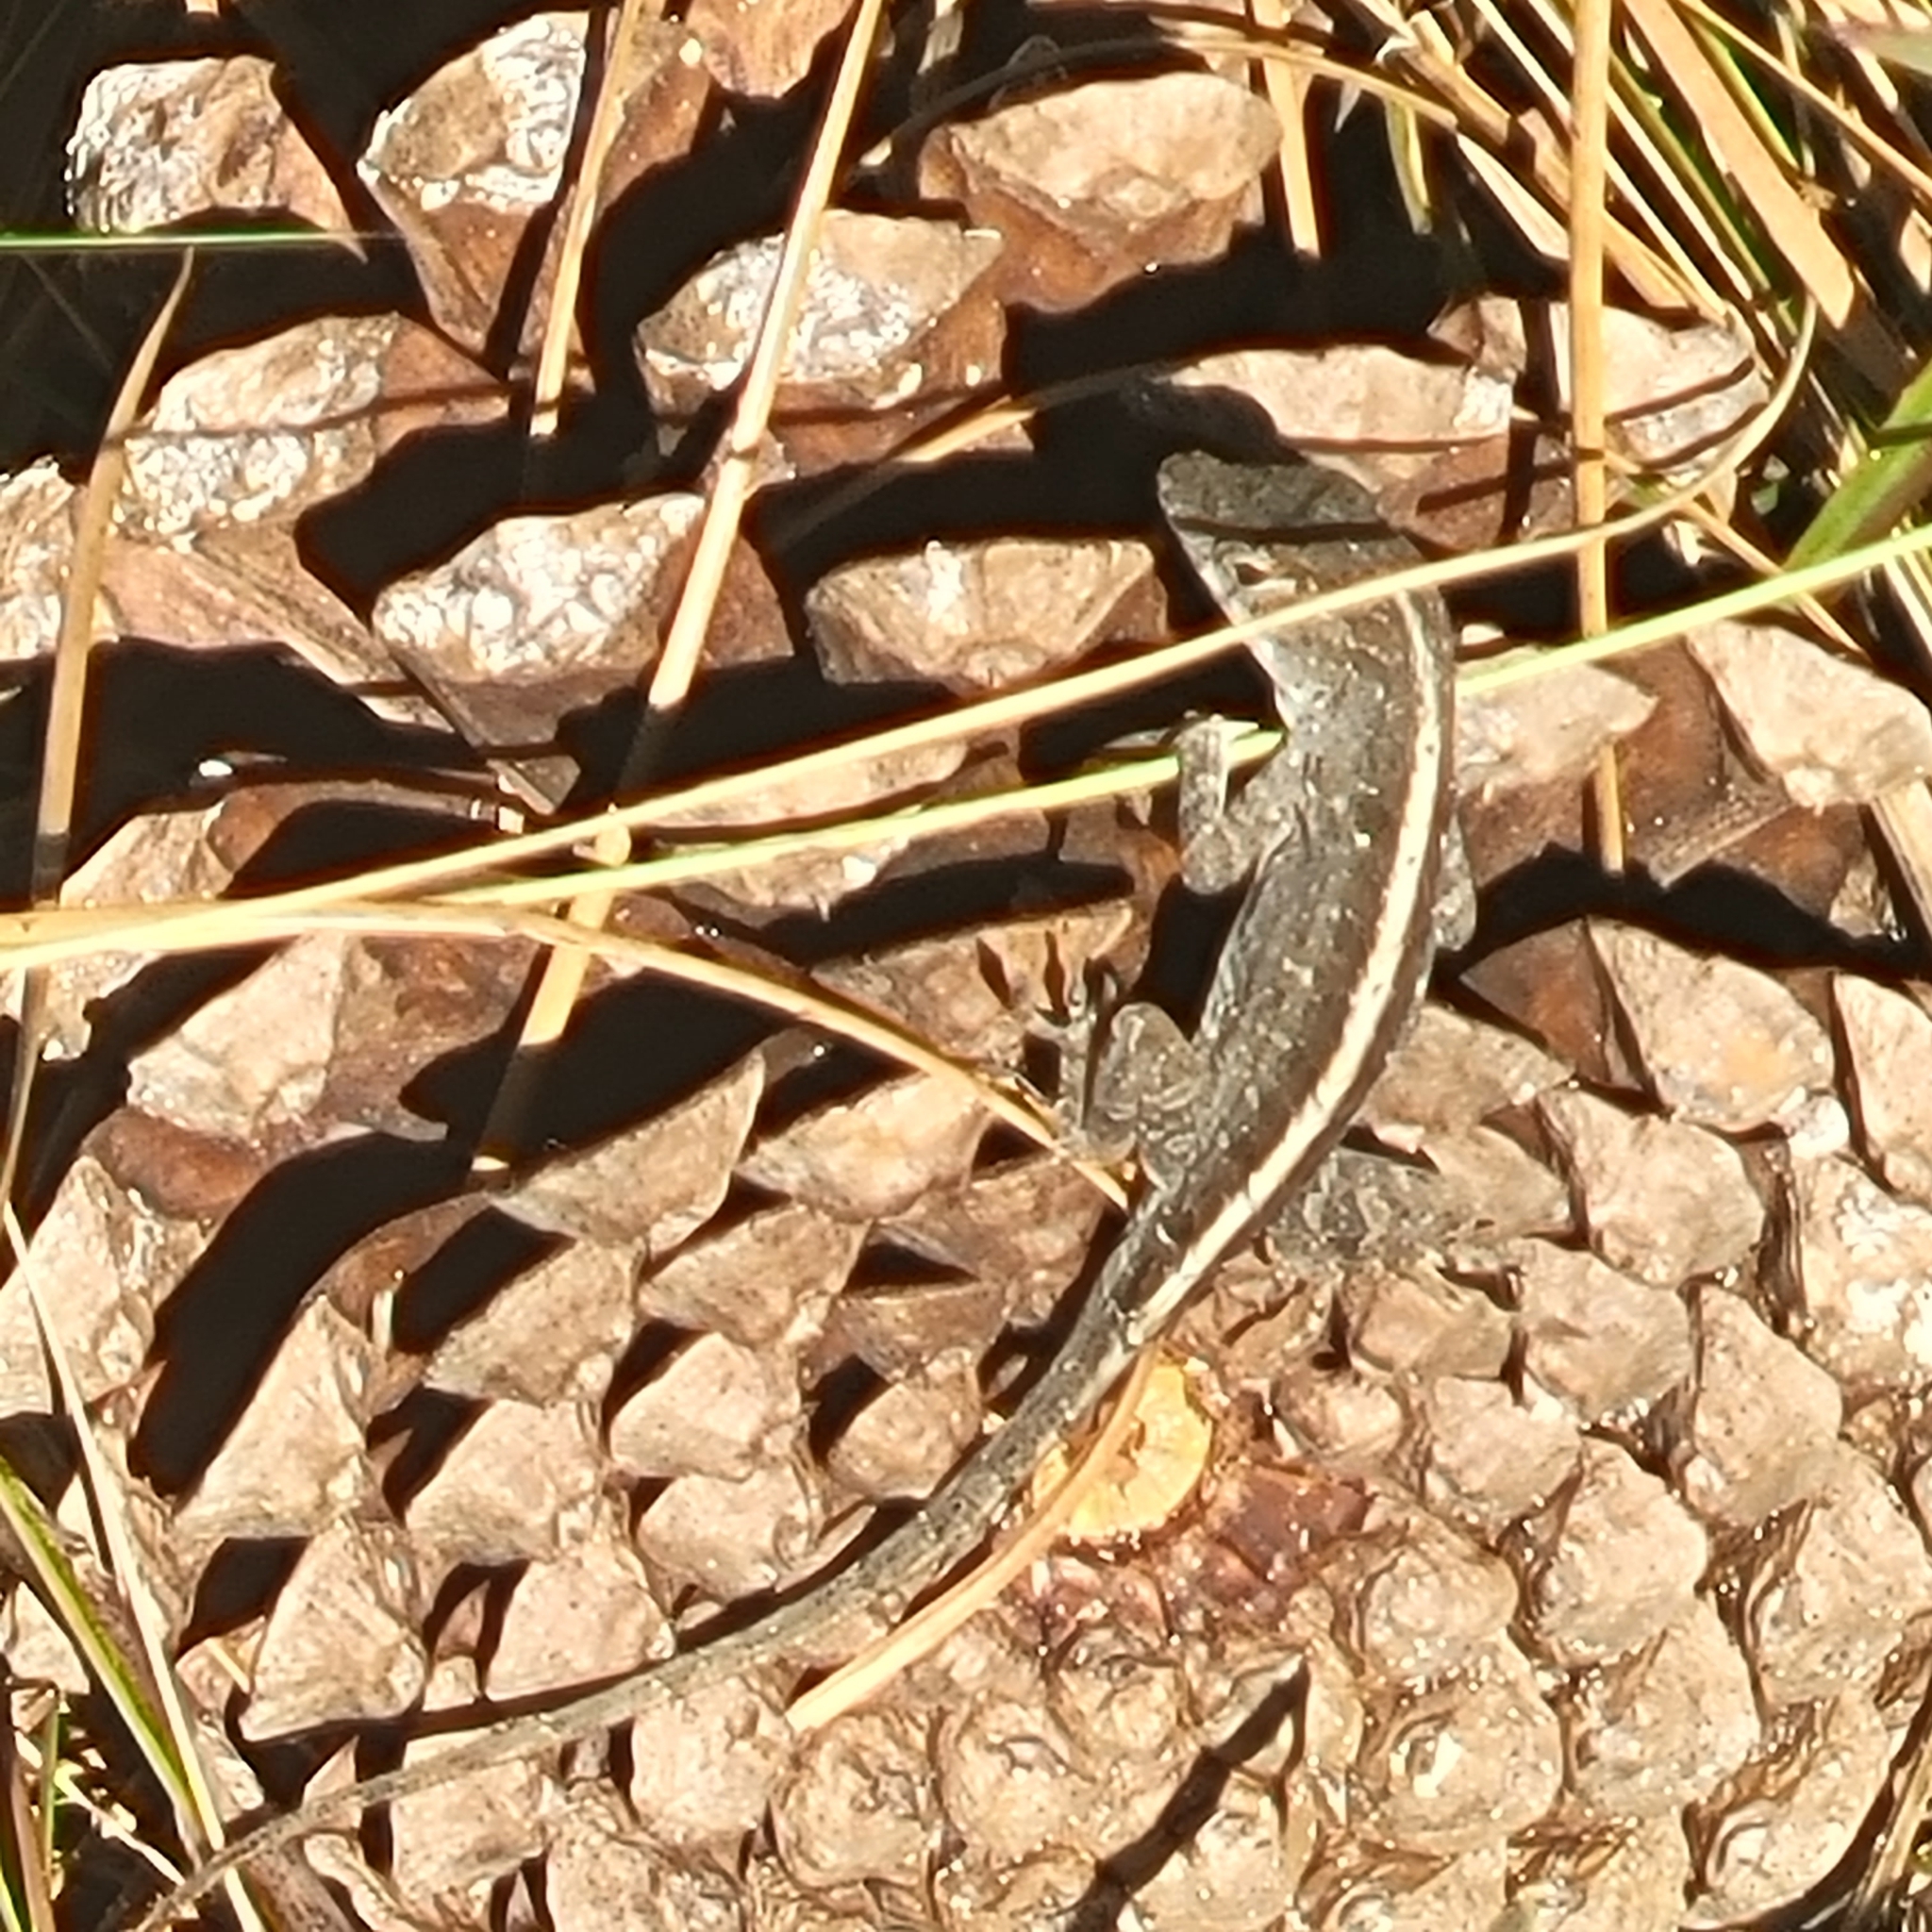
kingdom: Animalia
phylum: Chordata
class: Squamata
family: Dactyloidae
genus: Anolis
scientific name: Anolis sagrei
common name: Brown anole
